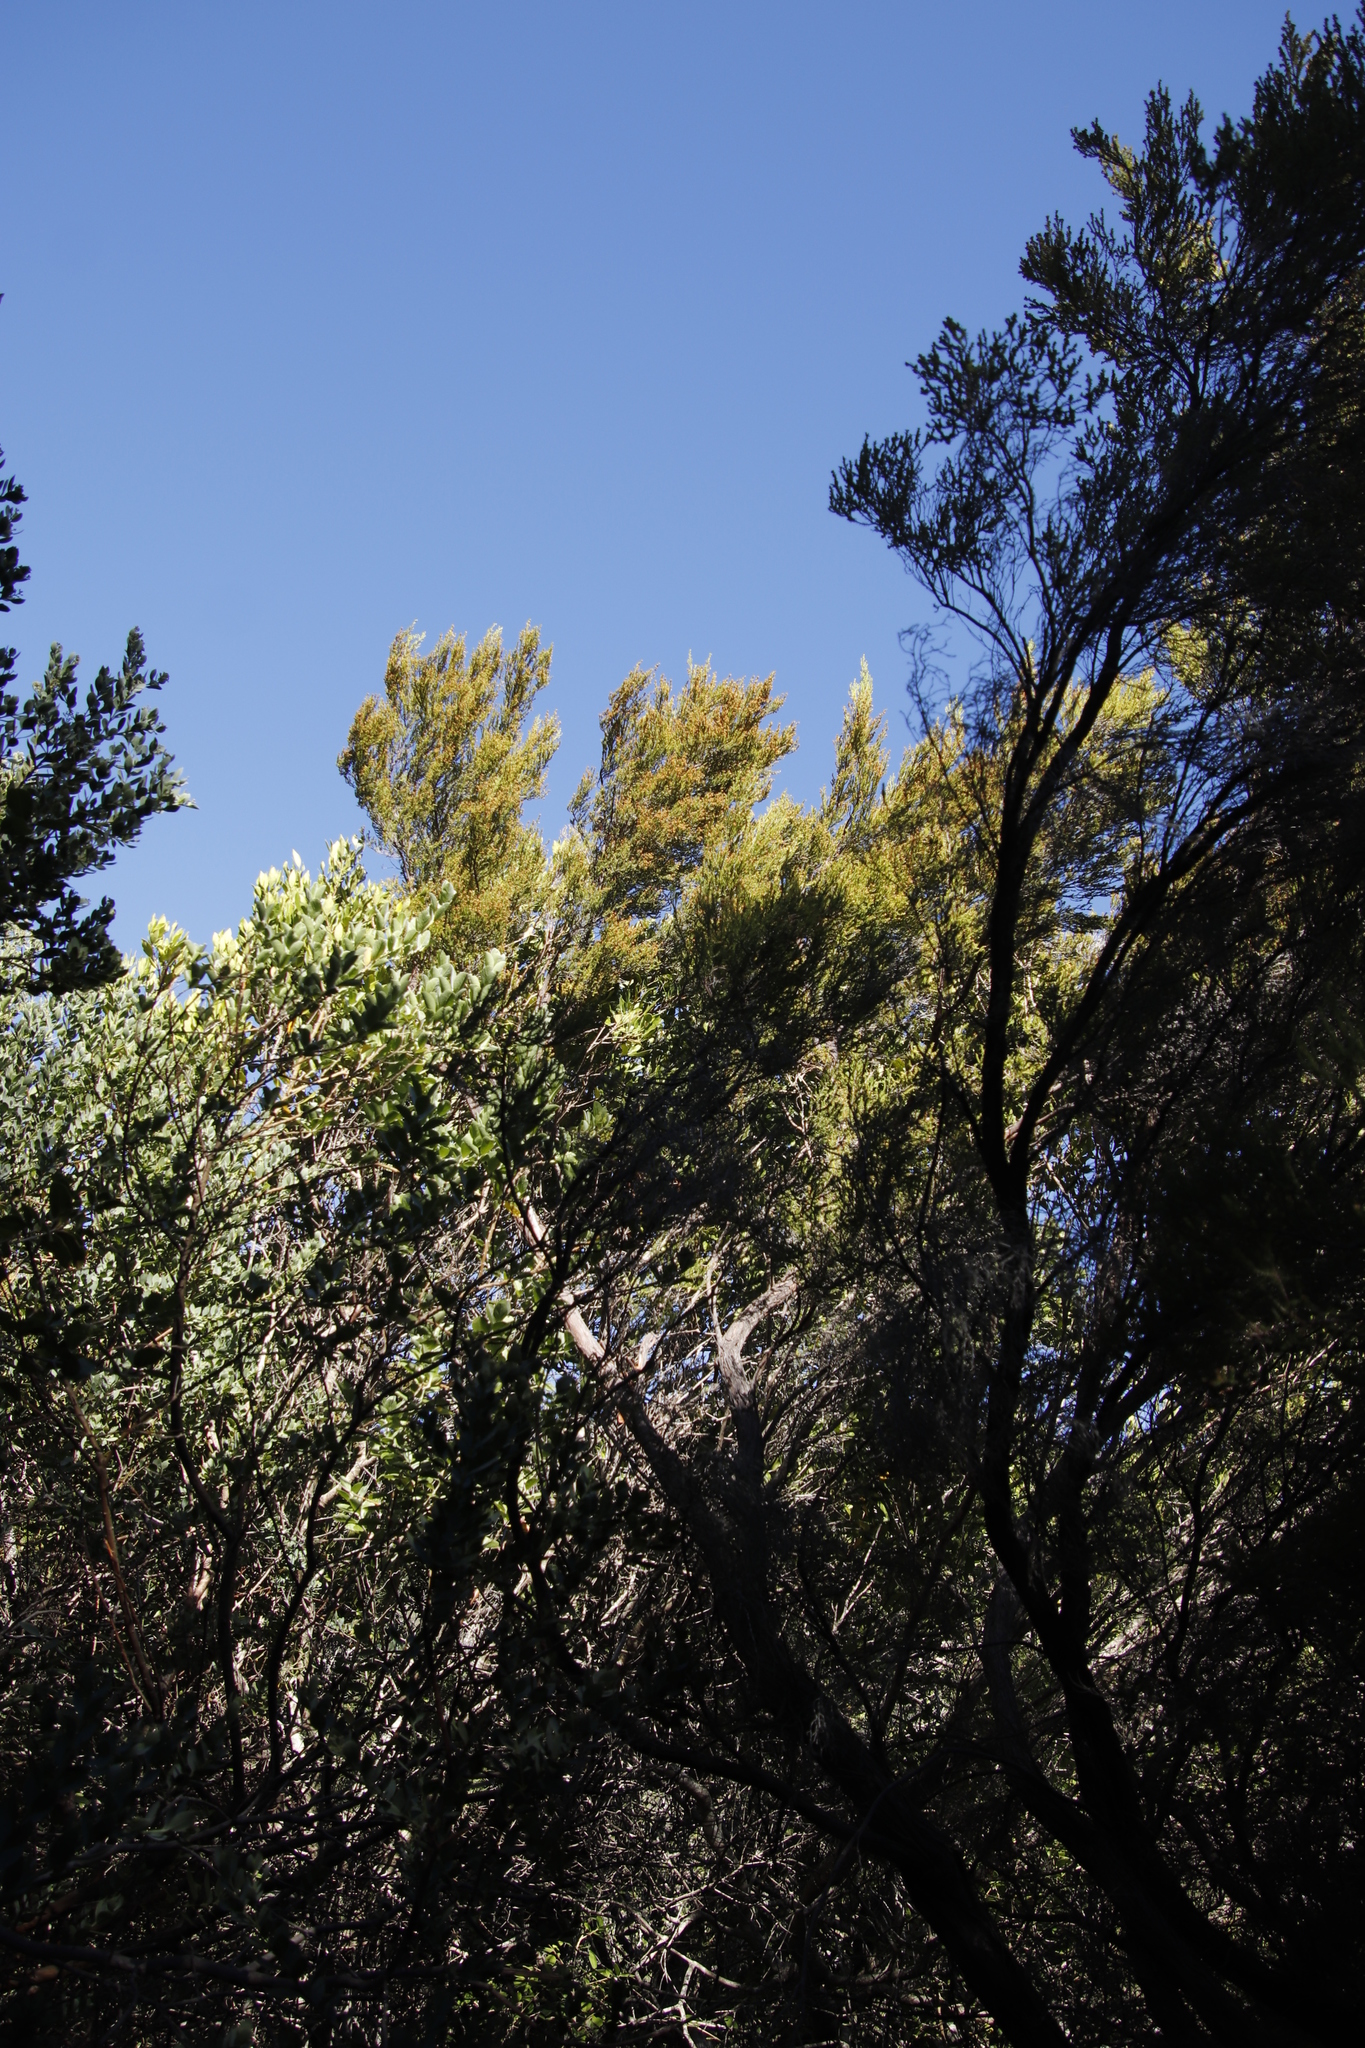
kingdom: Plantae
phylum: Tracheophyta
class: Magnoliopsida
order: Ericales
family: Ericaceae
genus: Erica
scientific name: Erica tristis
